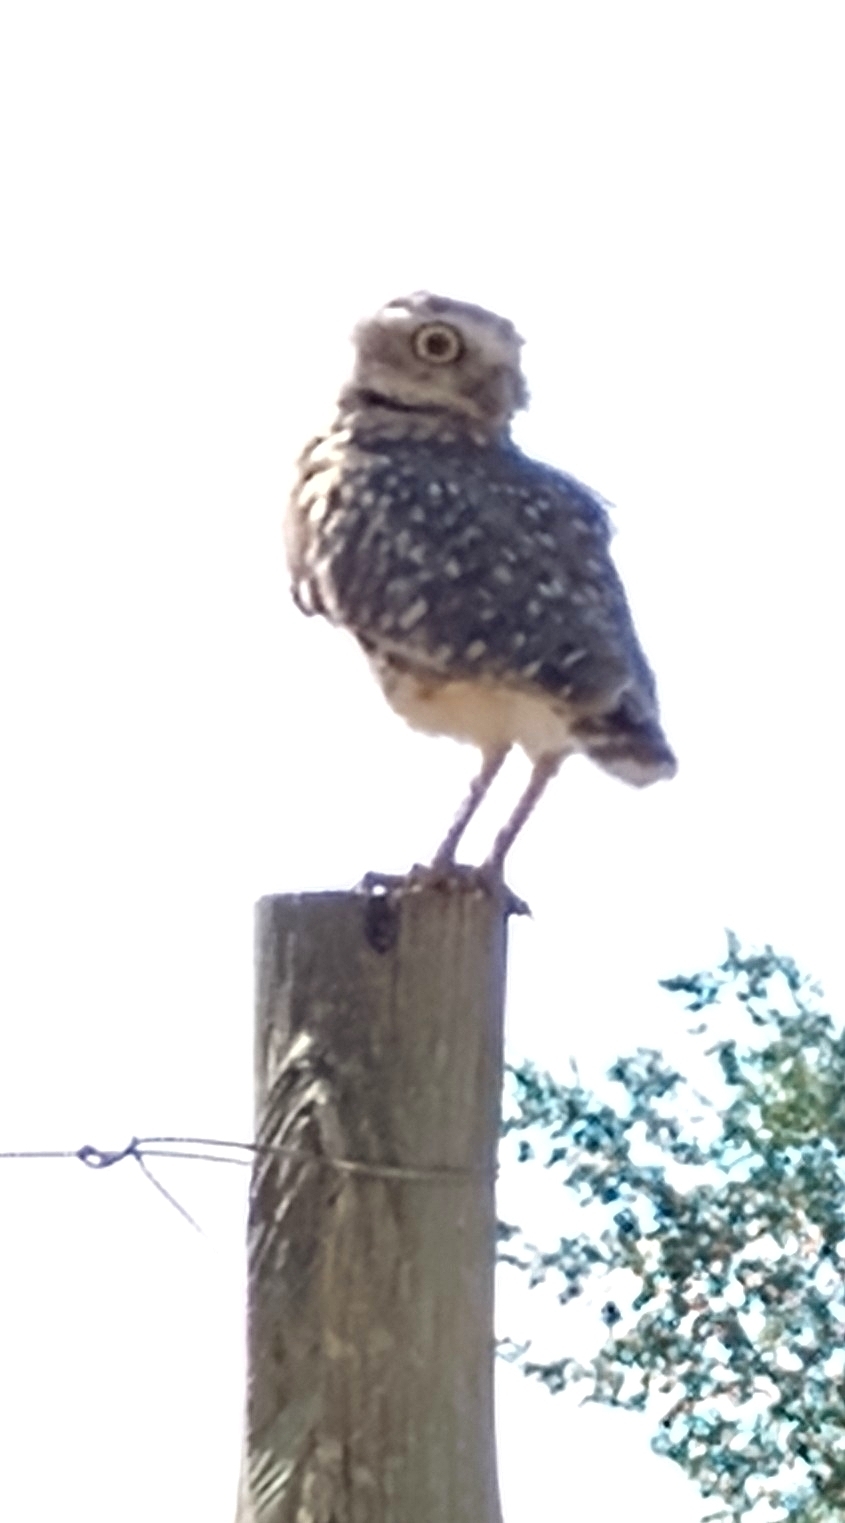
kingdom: Animalia
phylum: Chordata
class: Aves
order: Strigiformes
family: Strigidae
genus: Athene
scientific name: Athene cunicularia
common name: Burrowing owl
